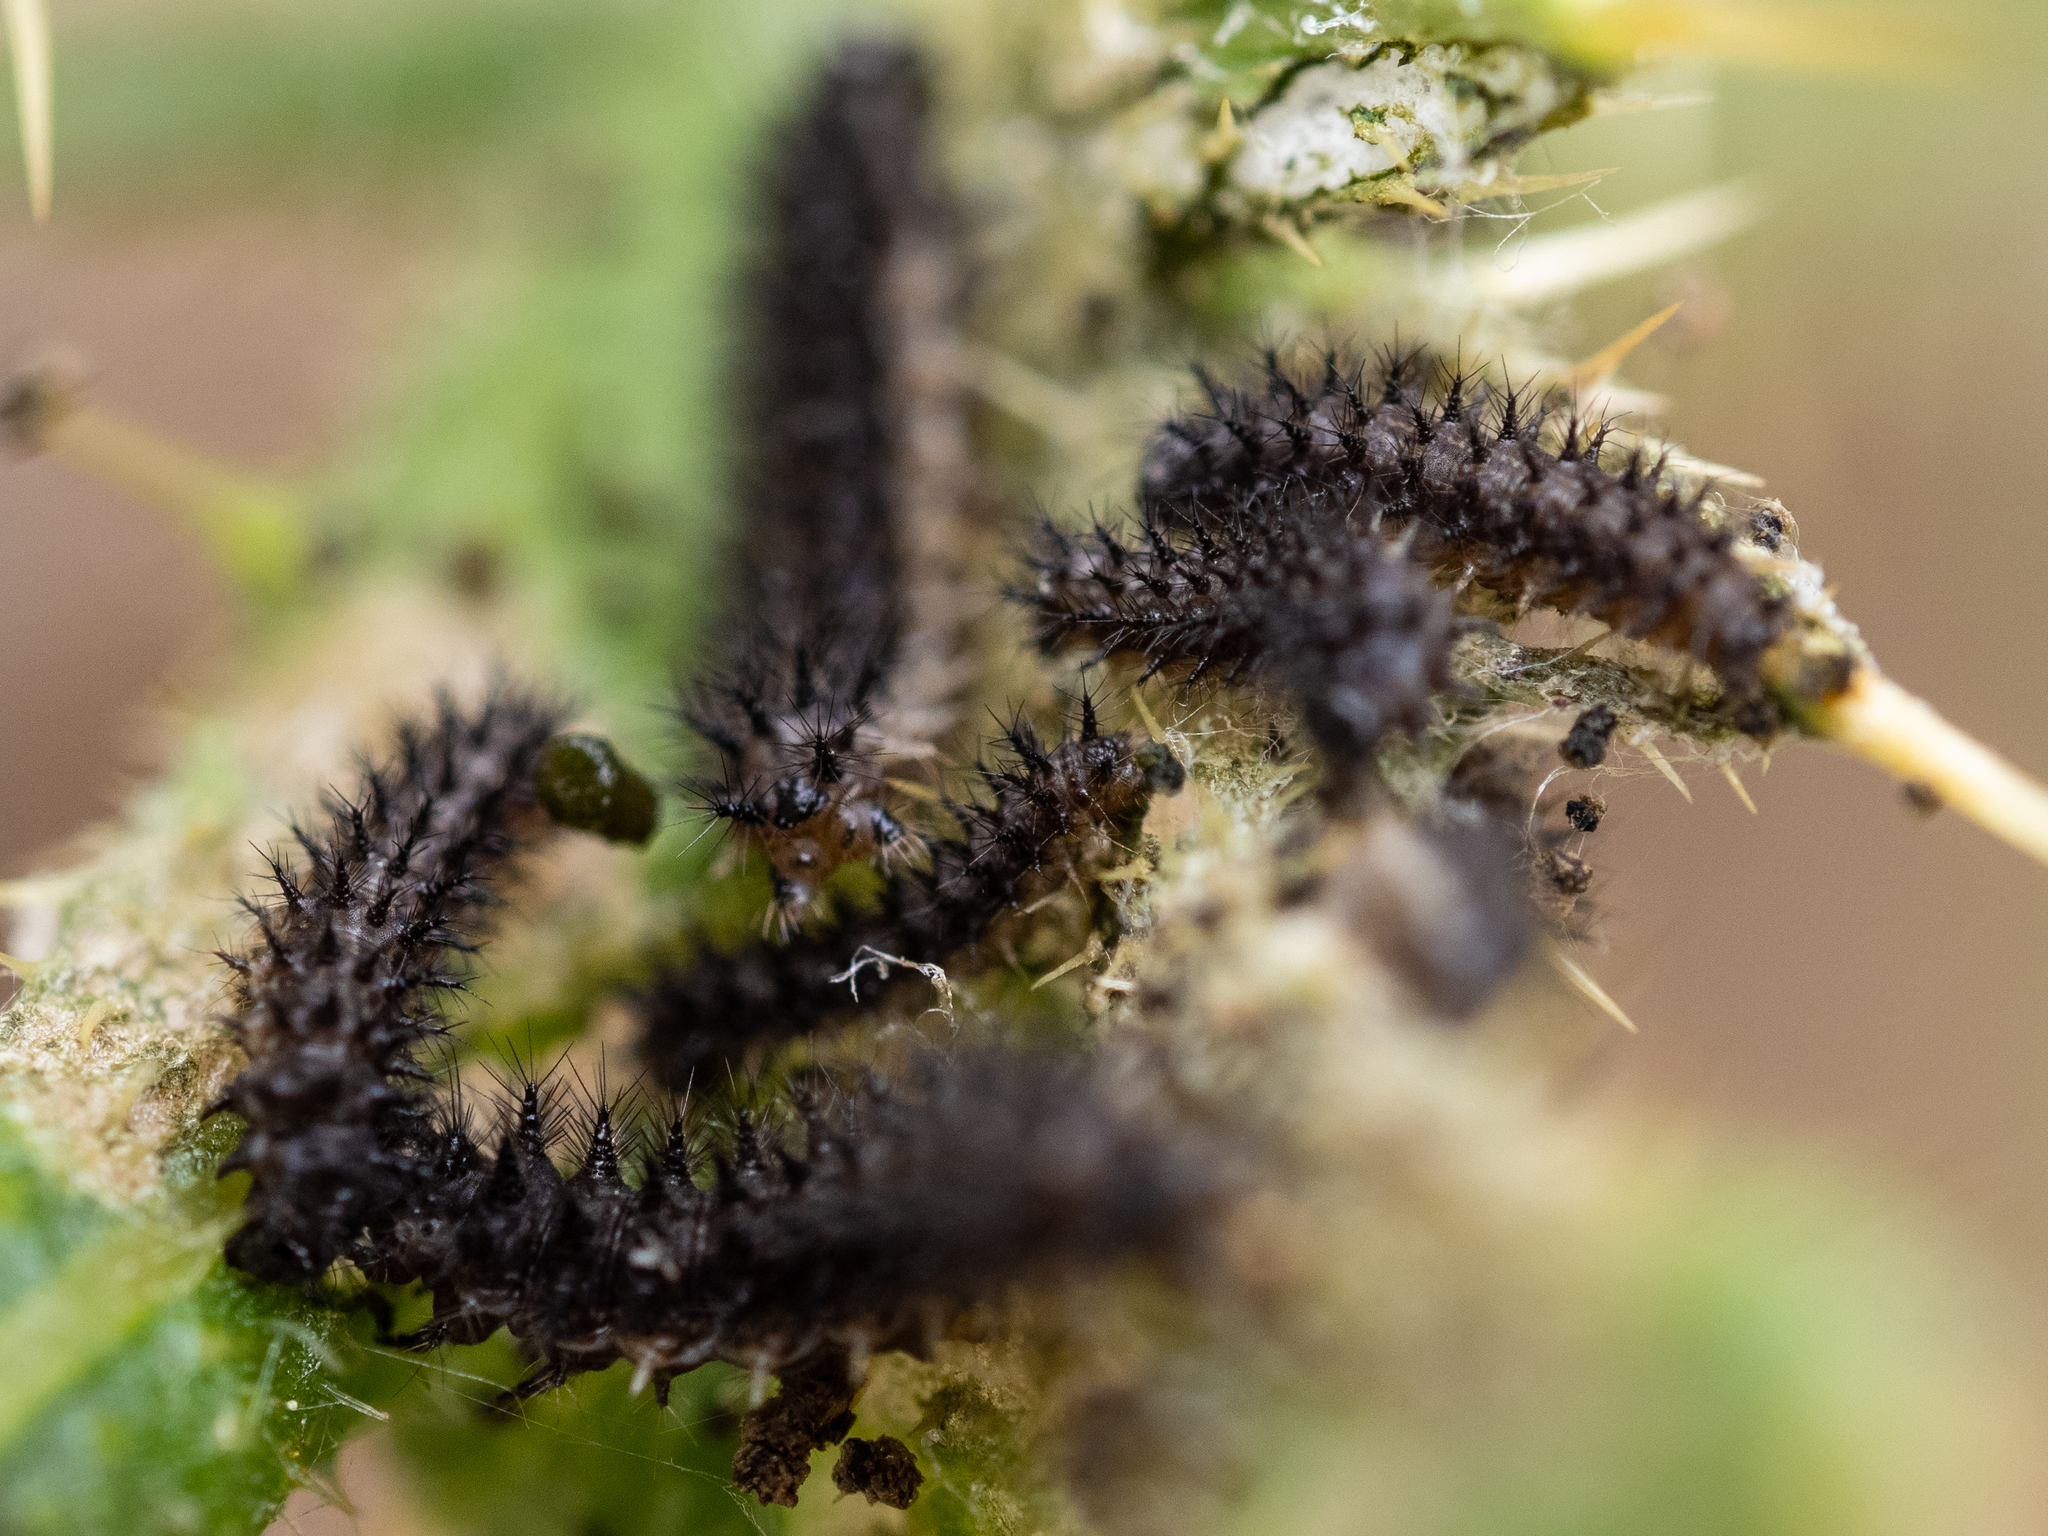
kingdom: Animalia
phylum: Arthropoda
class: Insecta
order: Lepidoptera
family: Nymphalidae
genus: Eresia
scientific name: Eresia aveyrona
